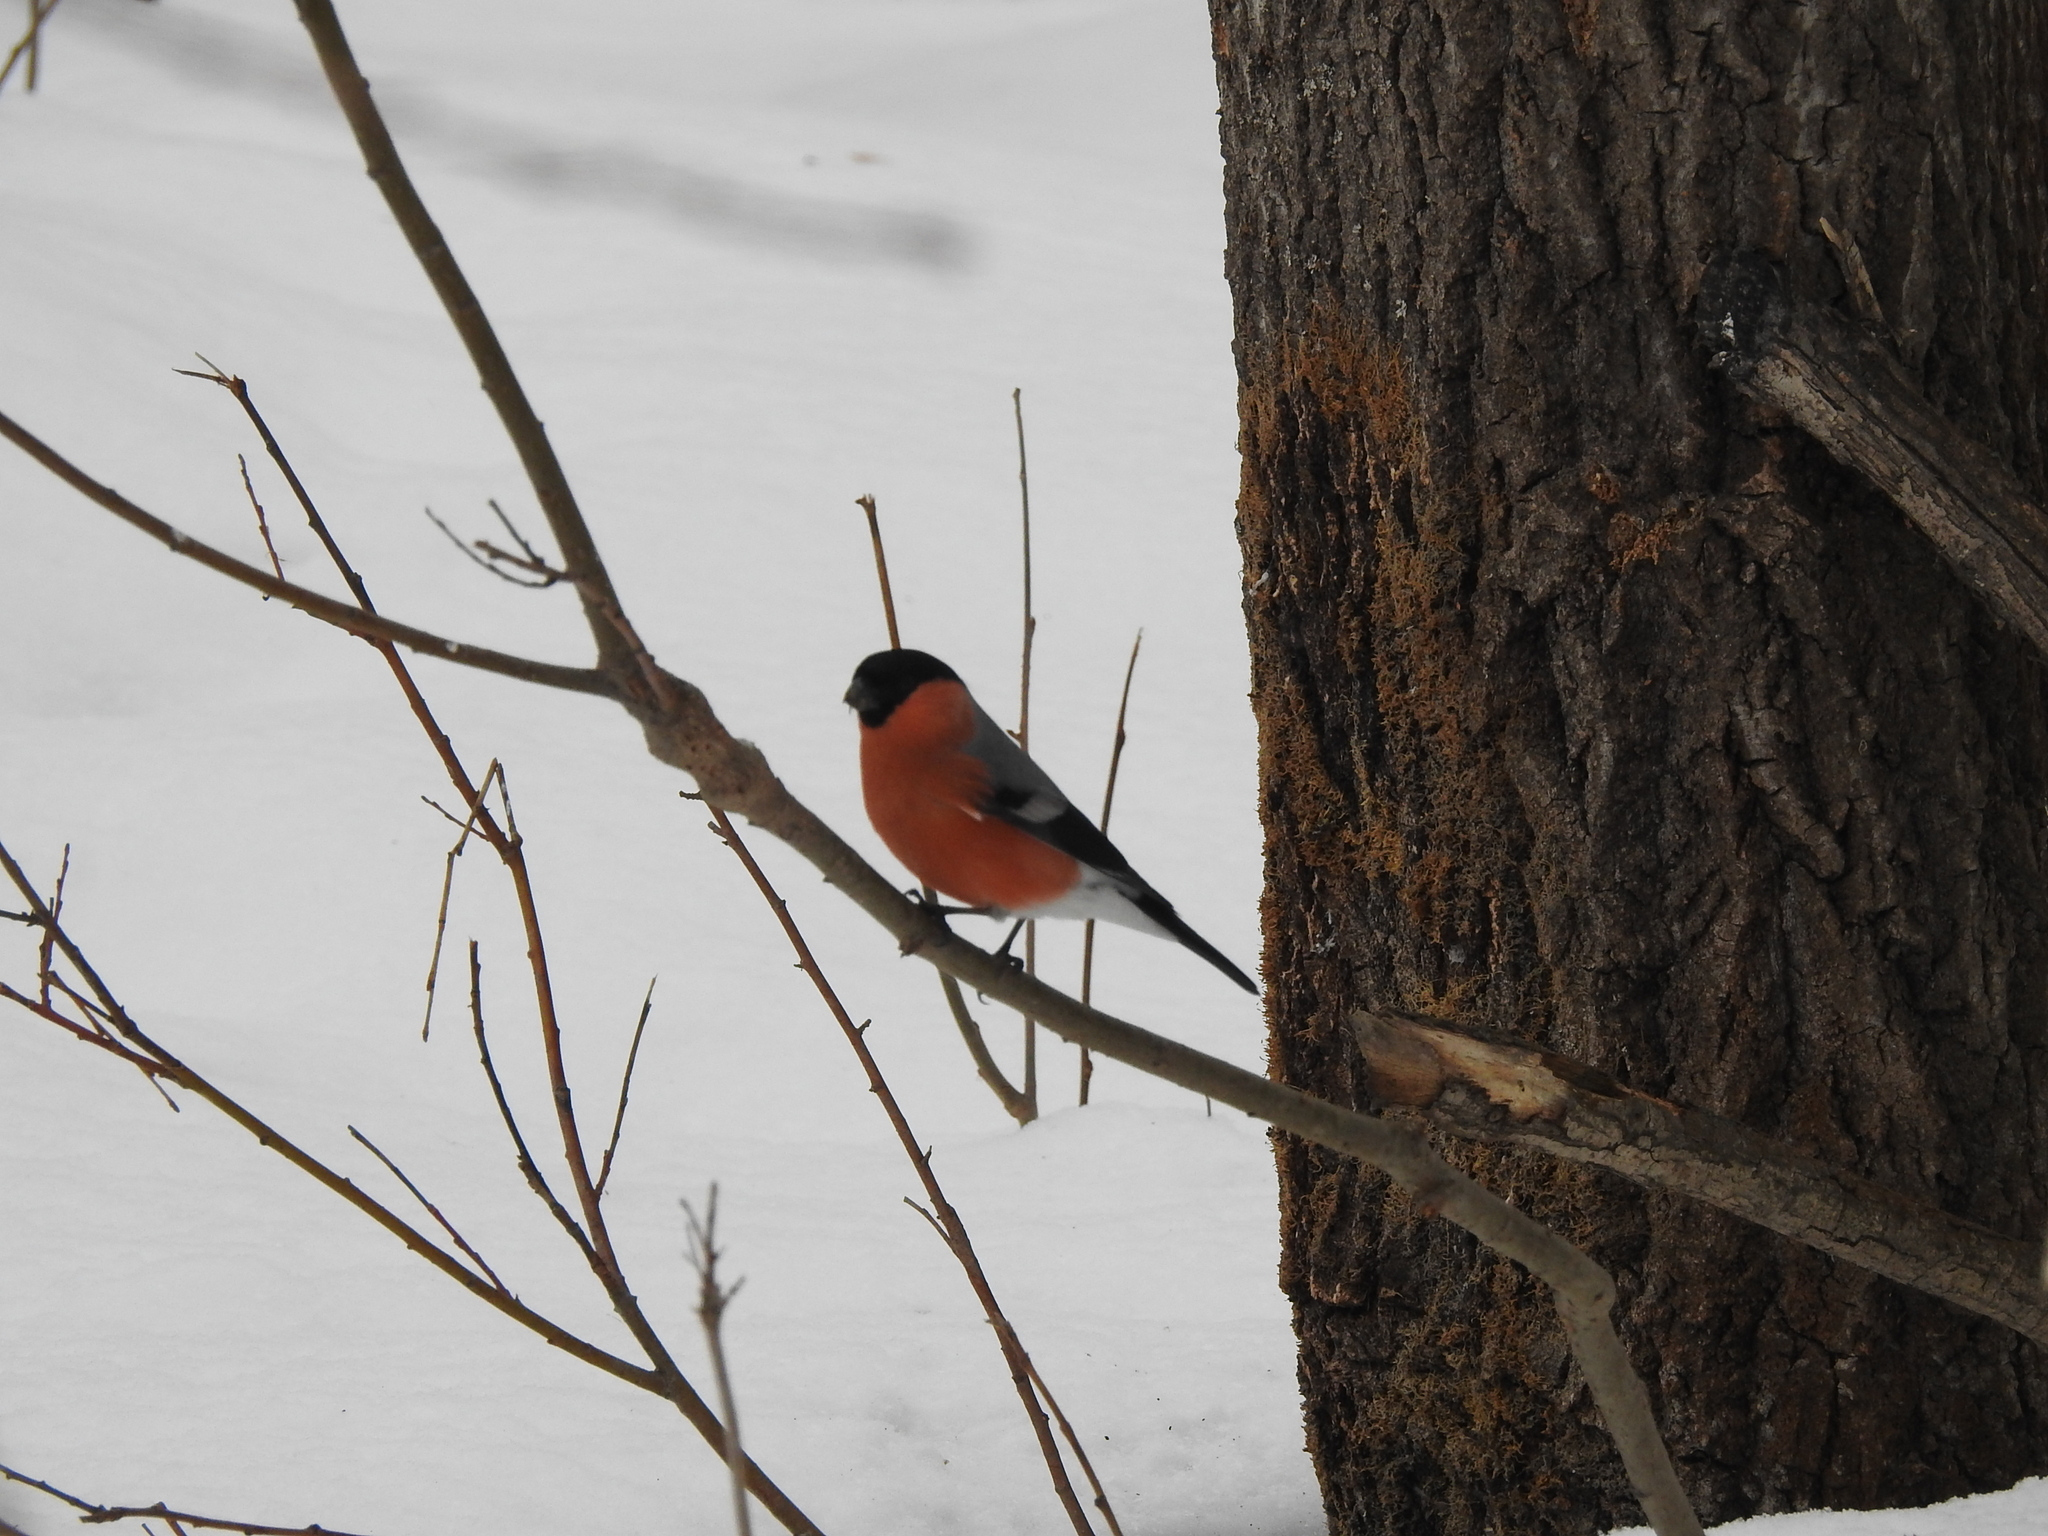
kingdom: Animalia
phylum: Chordata
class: Aves
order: Passeriformes
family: Fringillidae
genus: Pyrrhula
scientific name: Pyrrhula pyrrhula
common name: Eurasian bullfinch
